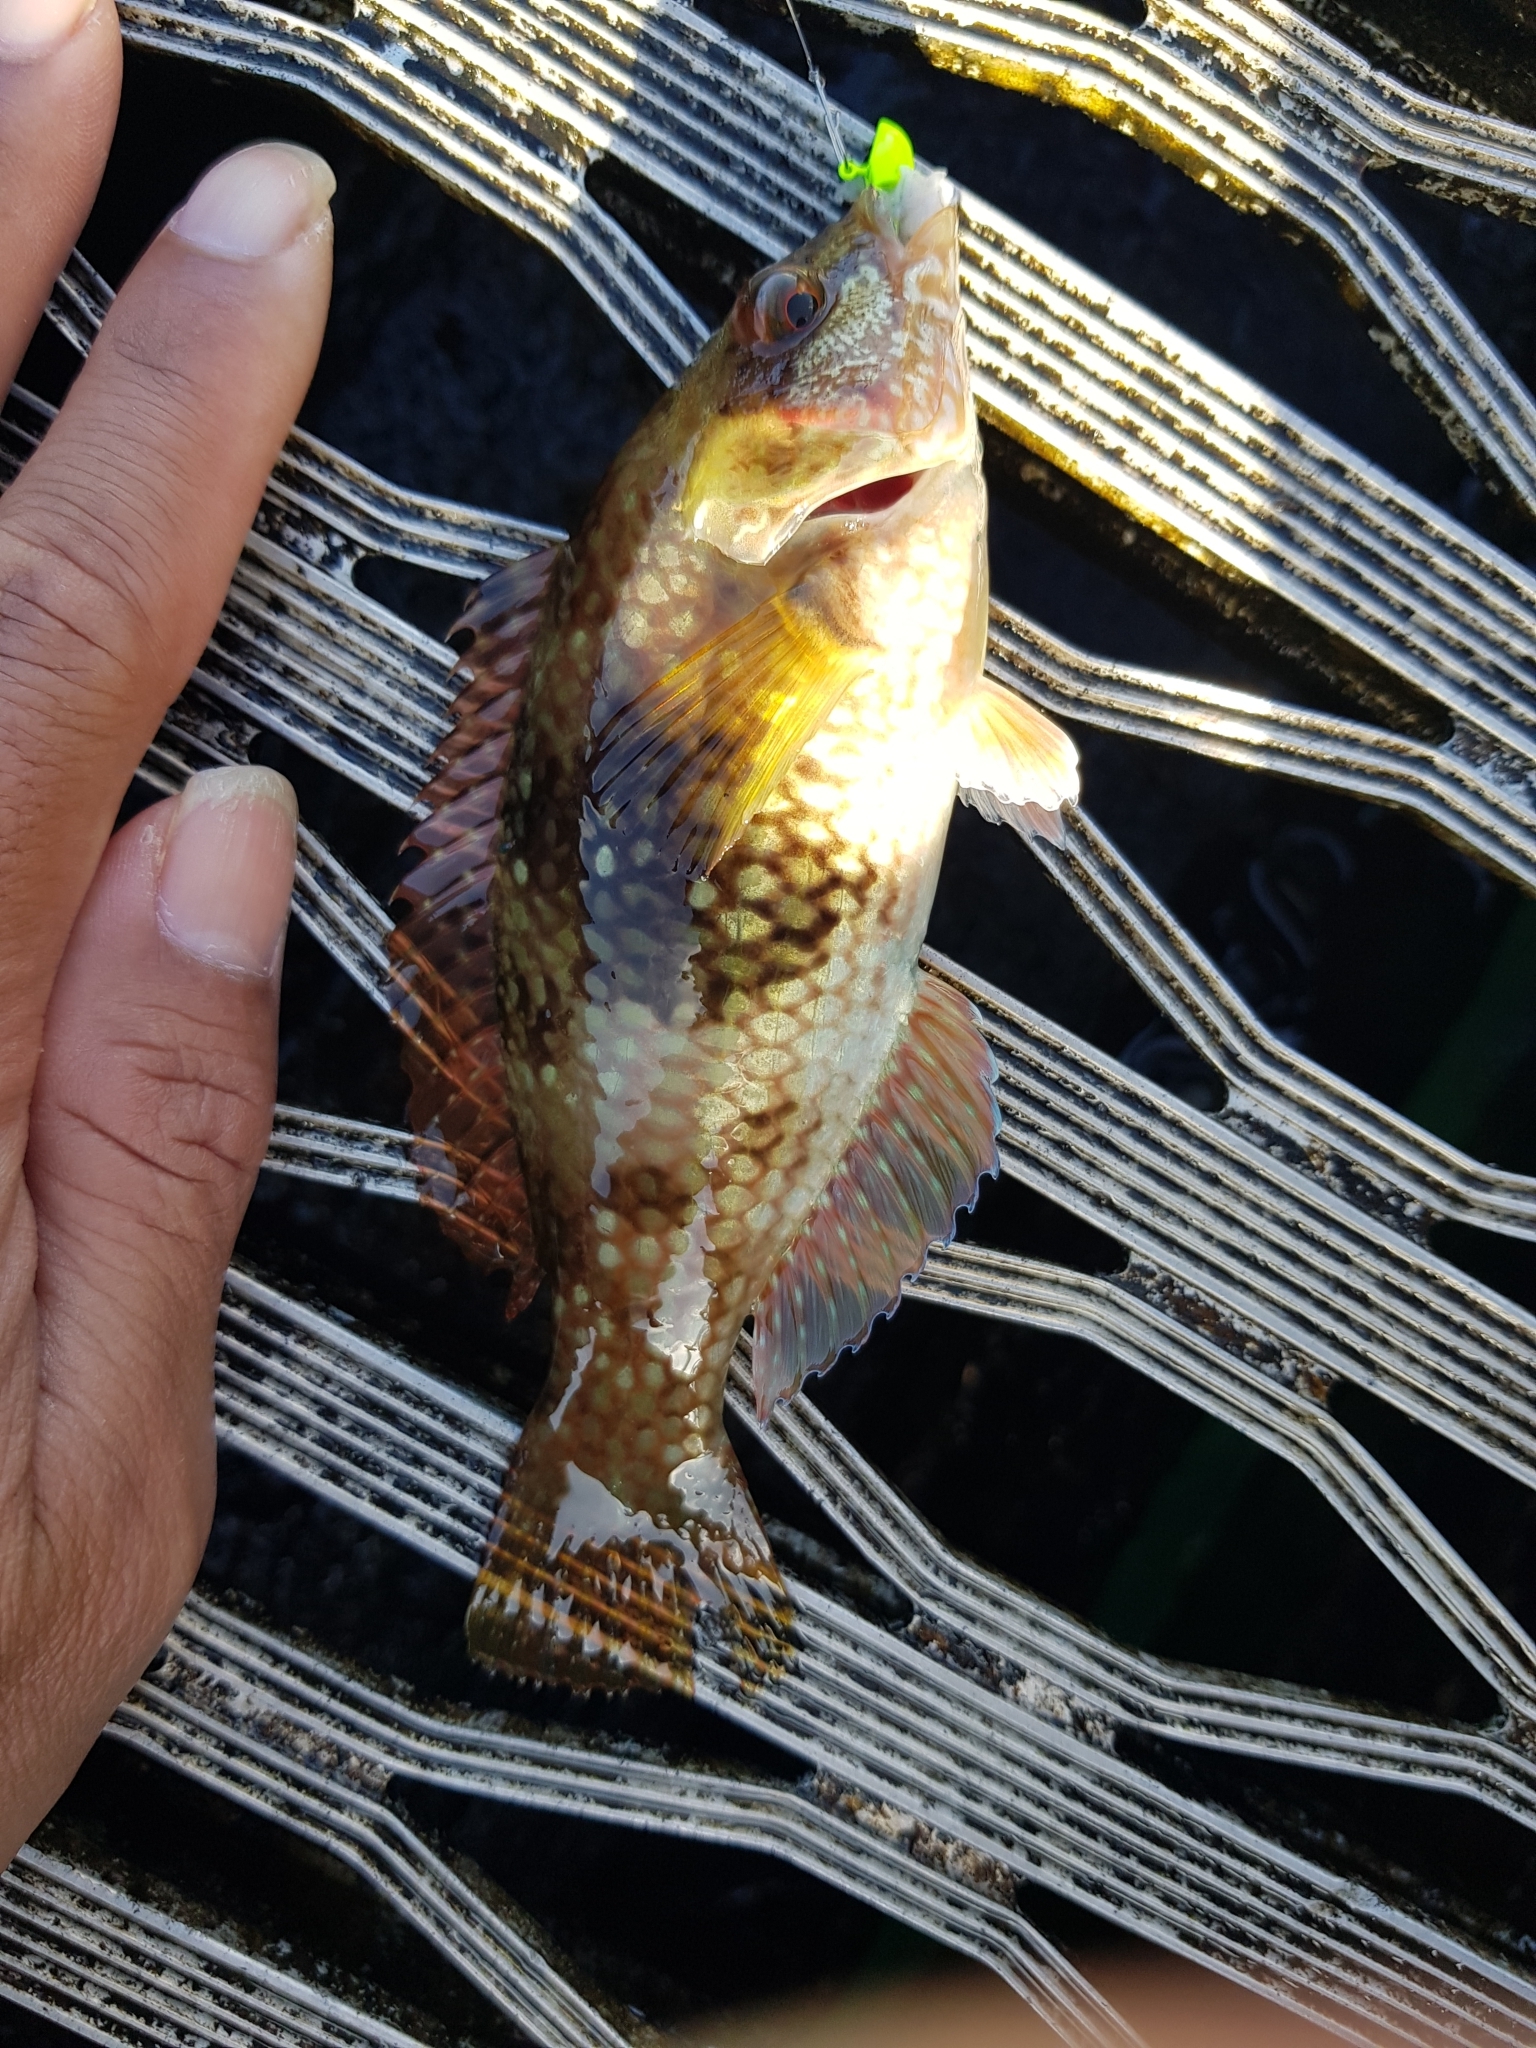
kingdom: Animalia
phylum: Chordata
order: Perciformes
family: Labridae
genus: Notolabrus
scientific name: Notolabrus tetricus
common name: Blue-throated parrotfish
